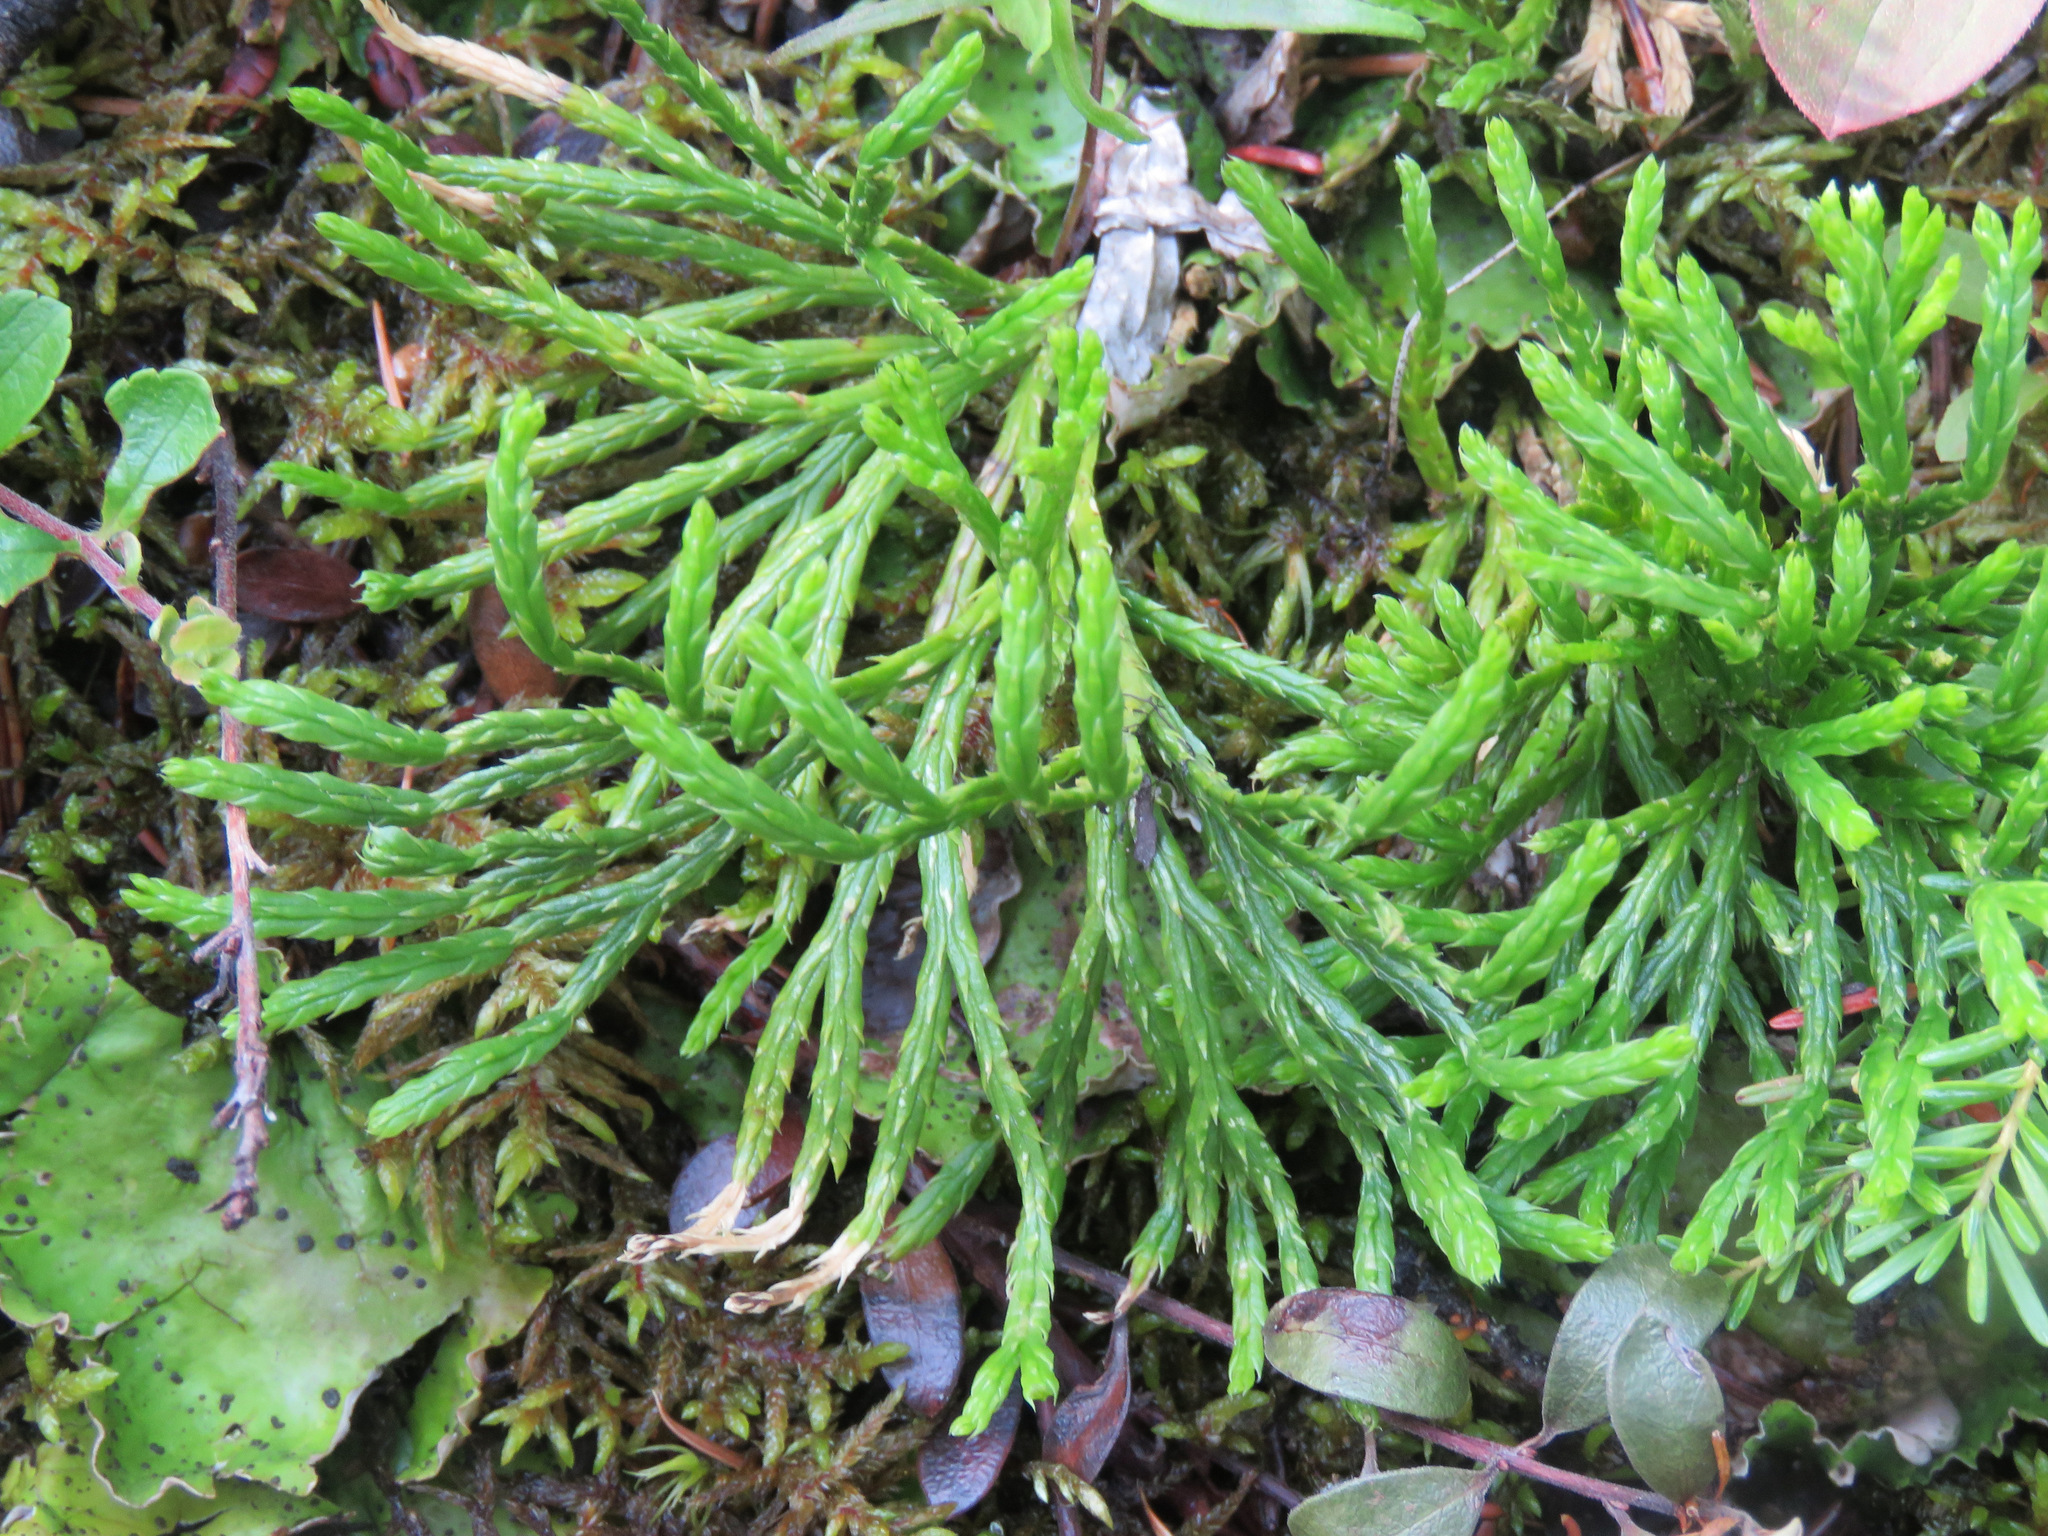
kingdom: Plantae
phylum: Tracheophyta
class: Lycopodiopsida
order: Lycopodiales
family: Lycopodiaceae
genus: Diphasiastrum
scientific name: Diphasiastrum complanatum
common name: Northern running-pine
